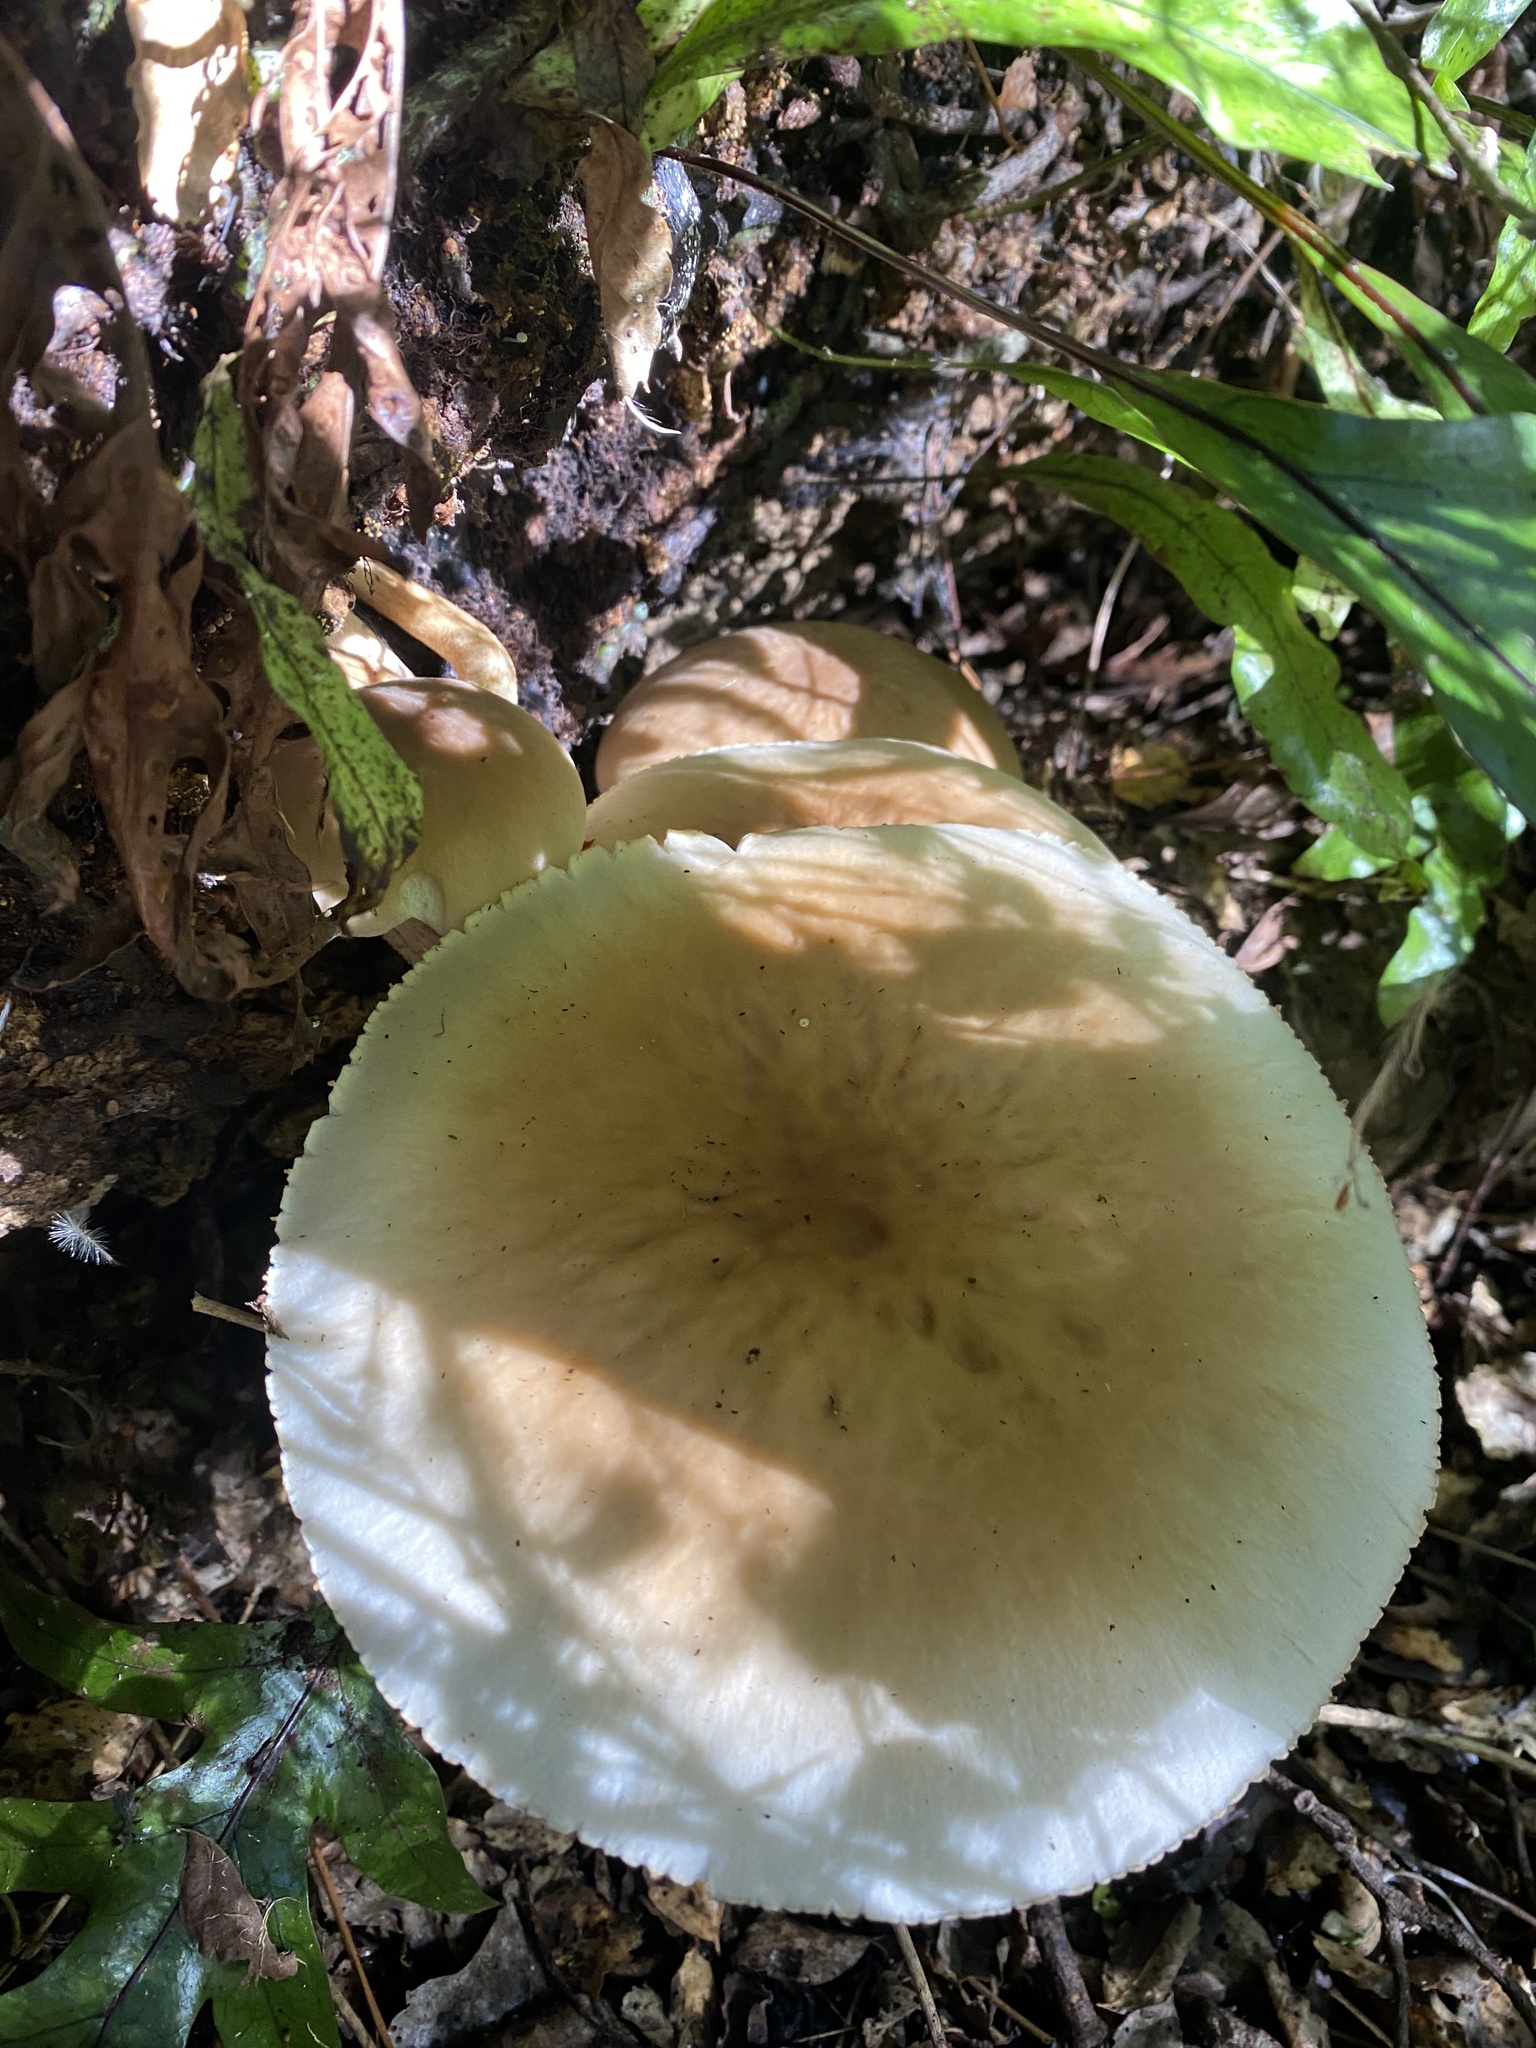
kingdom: Fungi
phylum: Basidiomycota
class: Agaricomycetes
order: Agaricales
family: Tubariaceae
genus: Cyclocybe
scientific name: Cyclocybe parasitica
